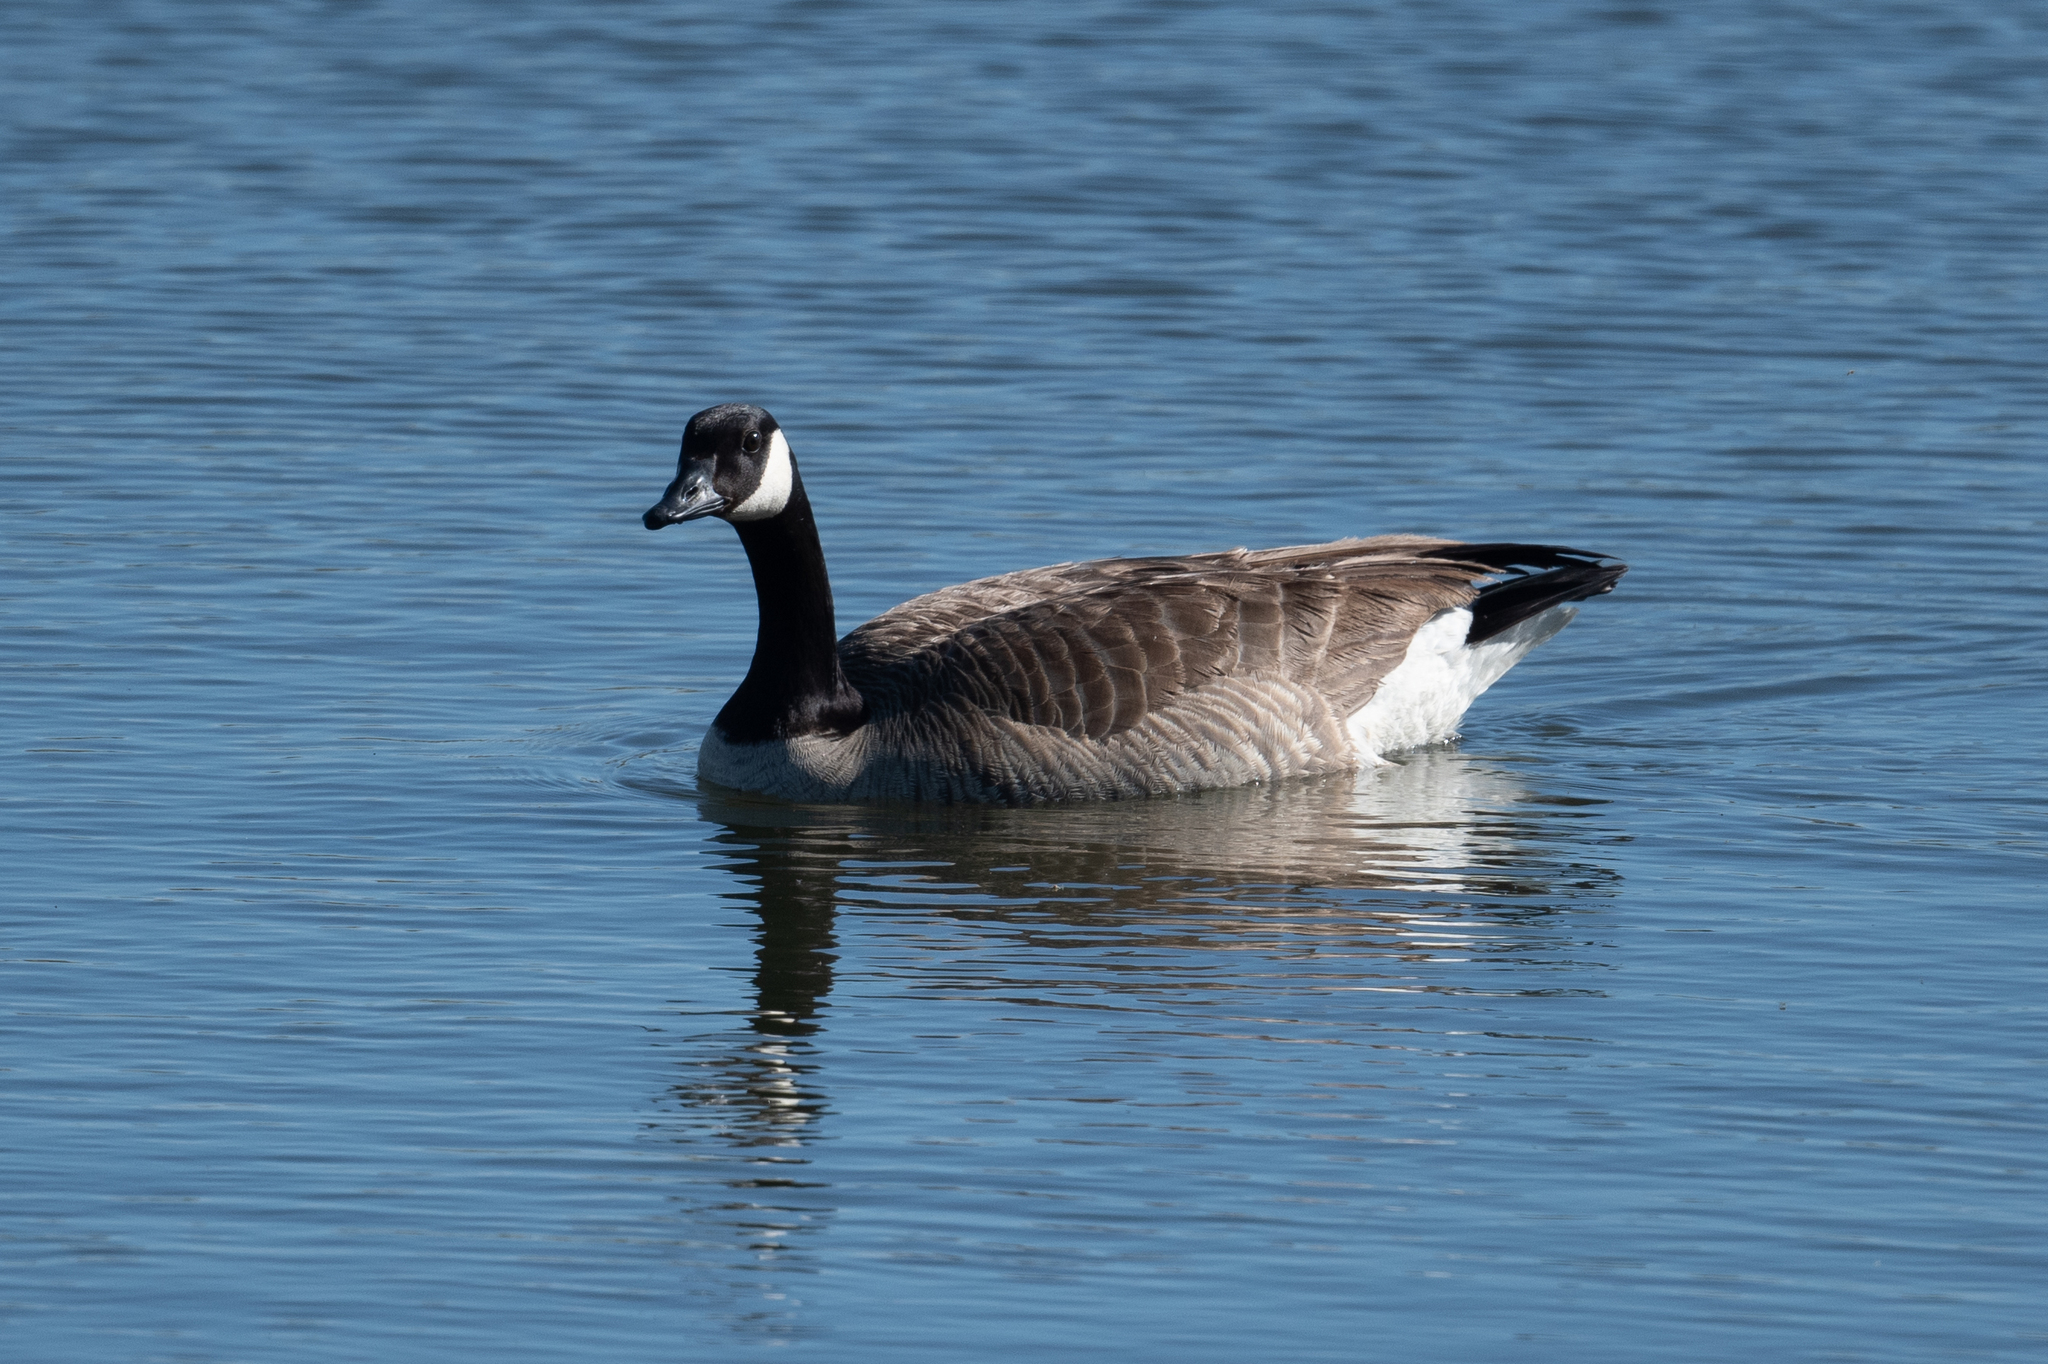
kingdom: Animalia
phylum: Chordata
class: Aves
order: Anseriformes
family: Anatidae
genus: Branta
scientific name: Branta canadensis
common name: Canada goose
